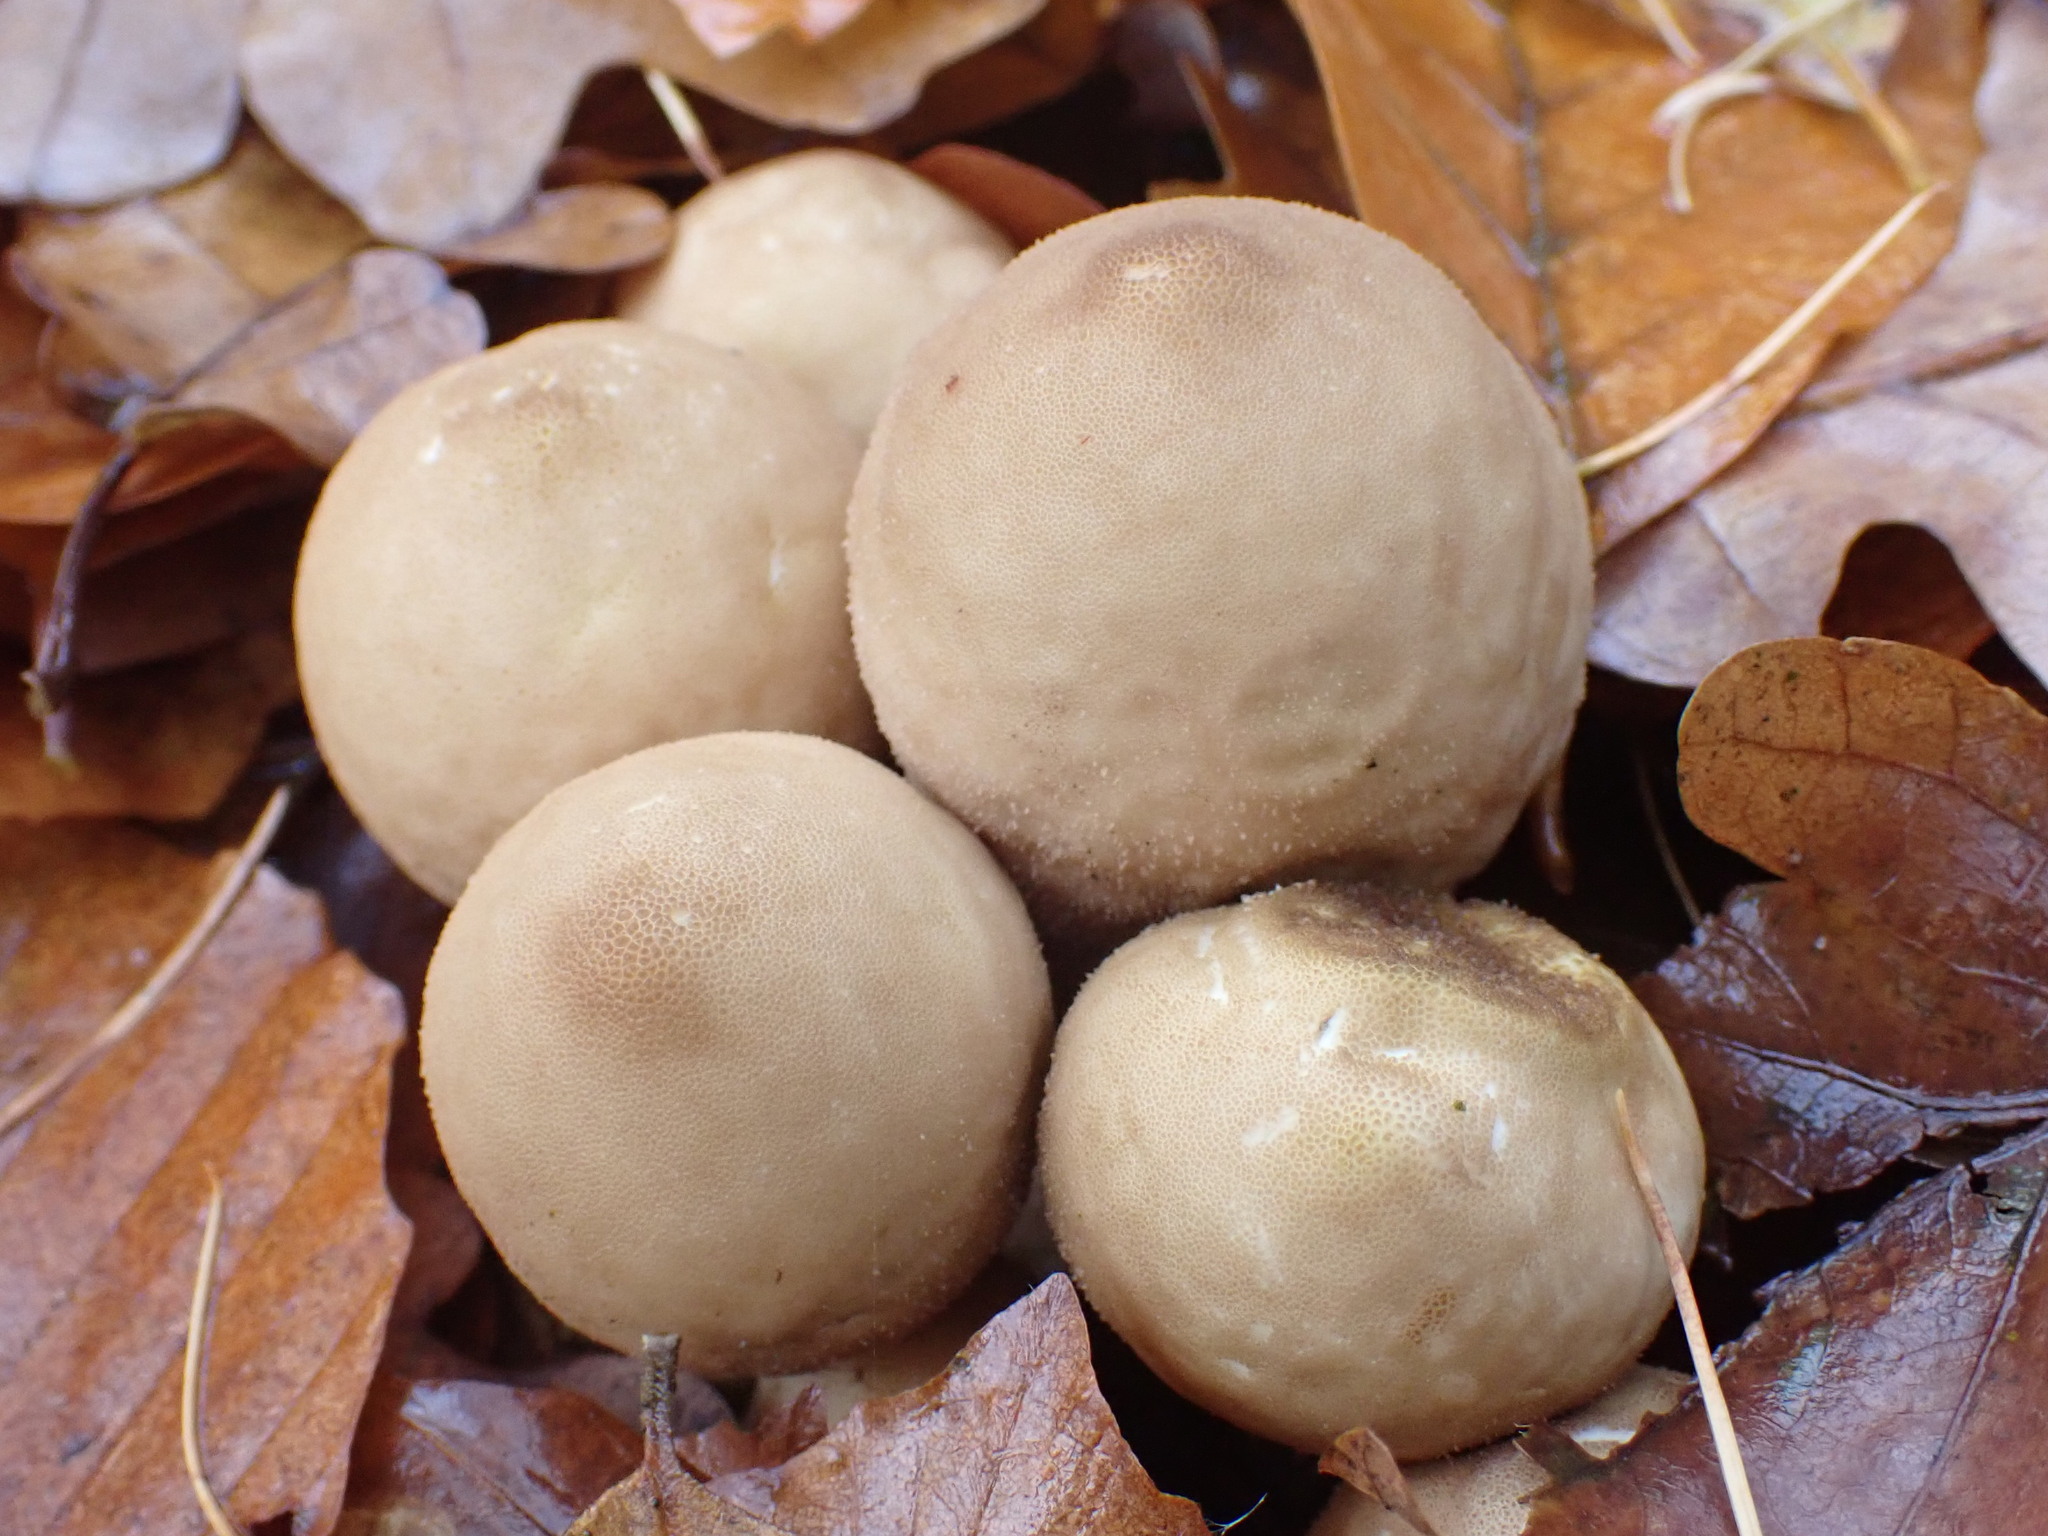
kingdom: Fungi
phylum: Basidiomycota
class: Agaricomycetes
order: Agaricales
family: Lycoperdaceae
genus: Apioperdon
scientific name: Apioperdon pyriforme
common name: Pear-shaped puffball
